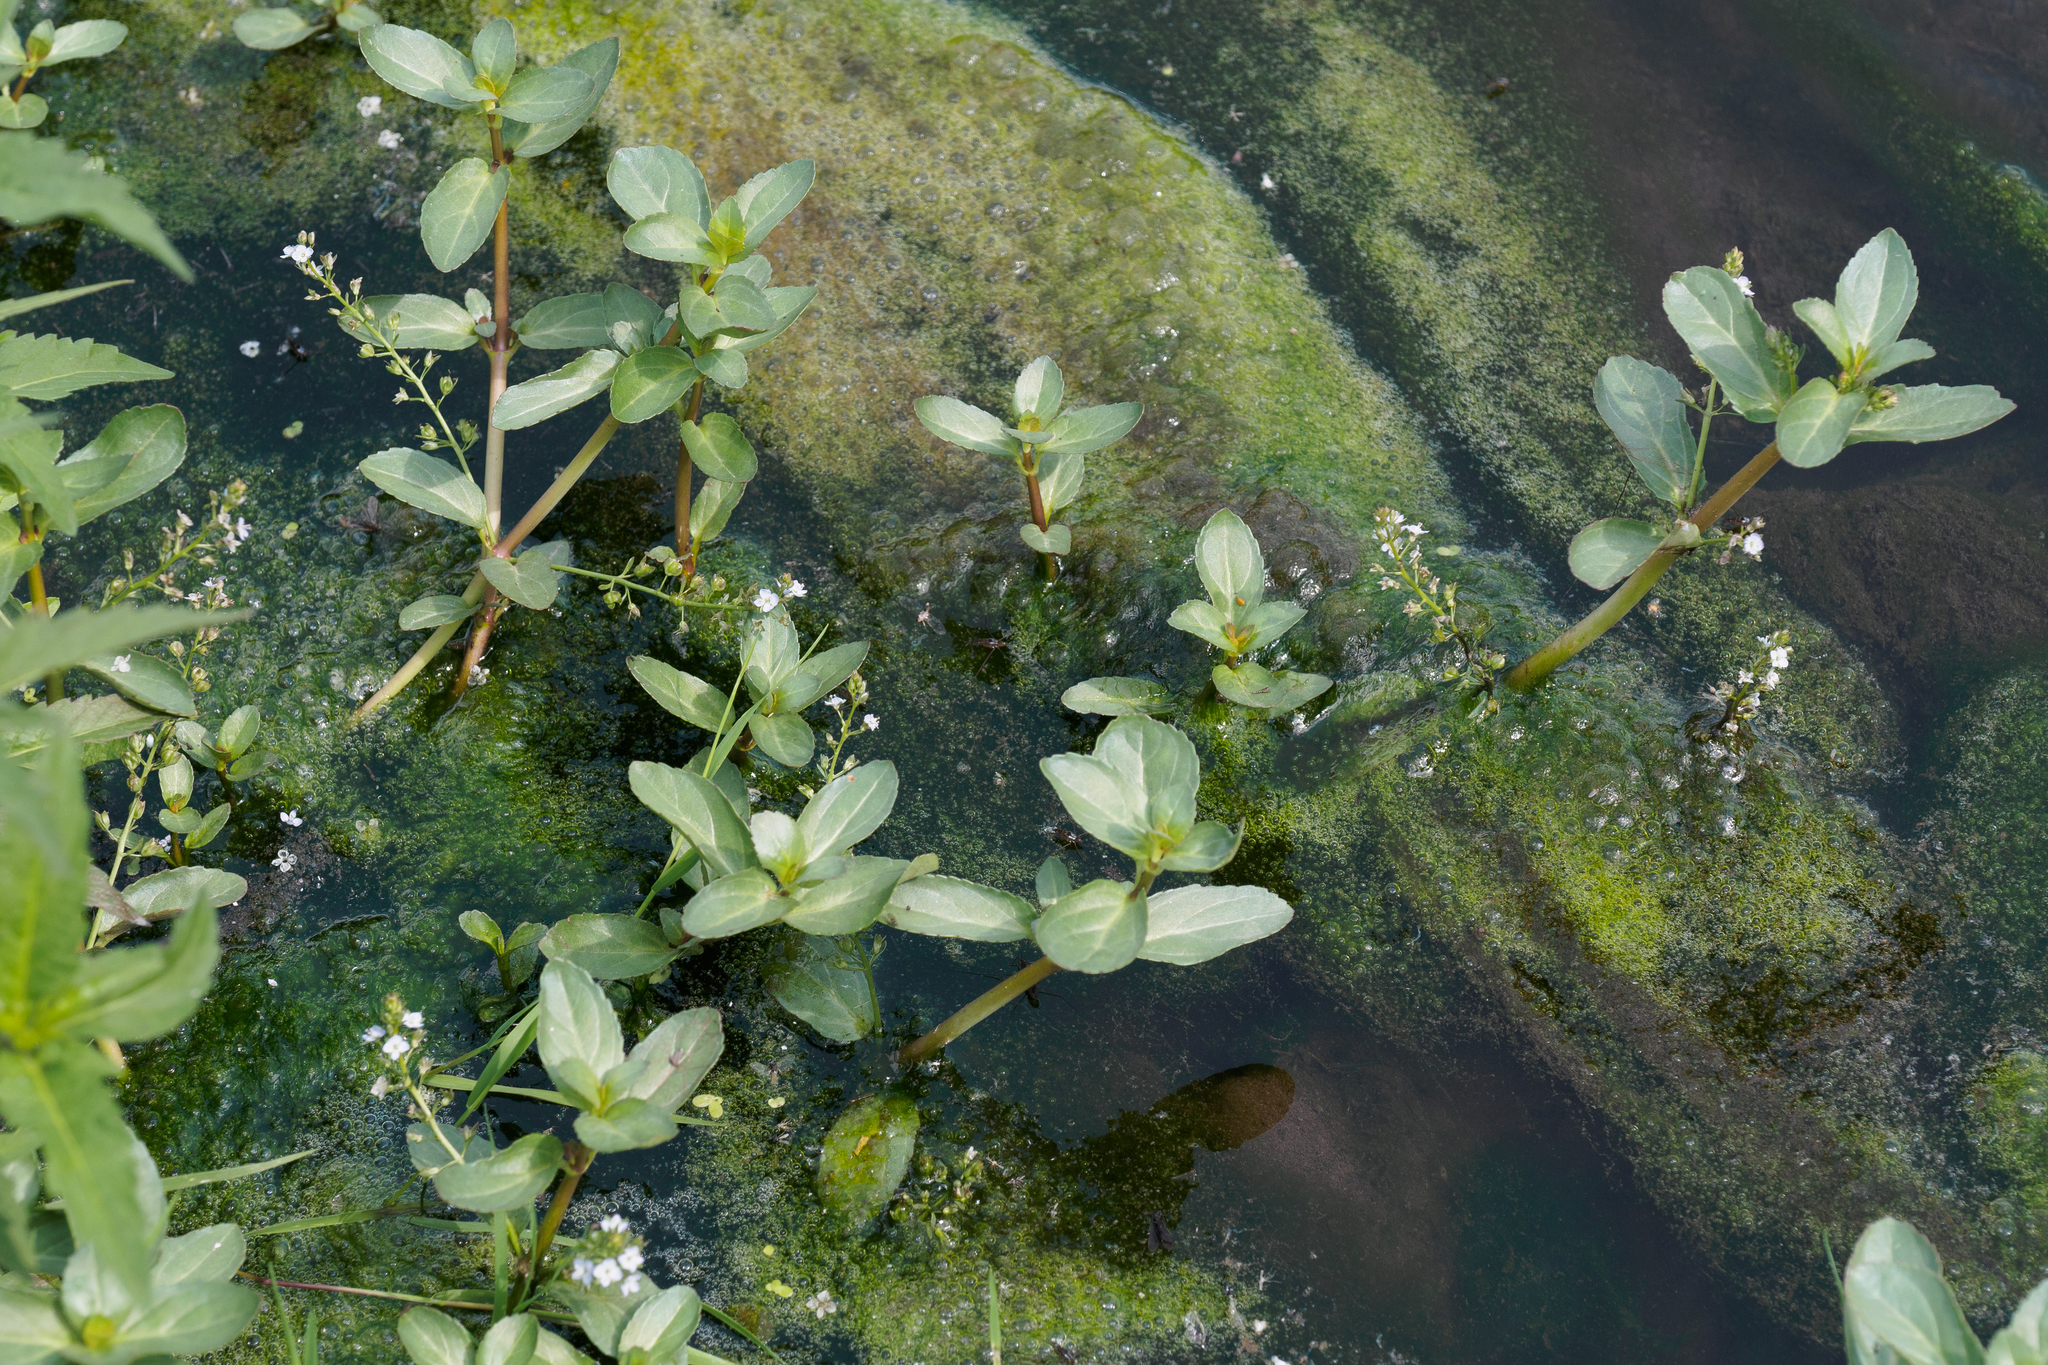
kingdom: Plantae
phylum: Tracheophyta
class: Magnoliopsida
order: Lamiales
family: Plantaginaceae
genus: Veronica
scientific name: Veronica beccabunga
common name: Brooklime
